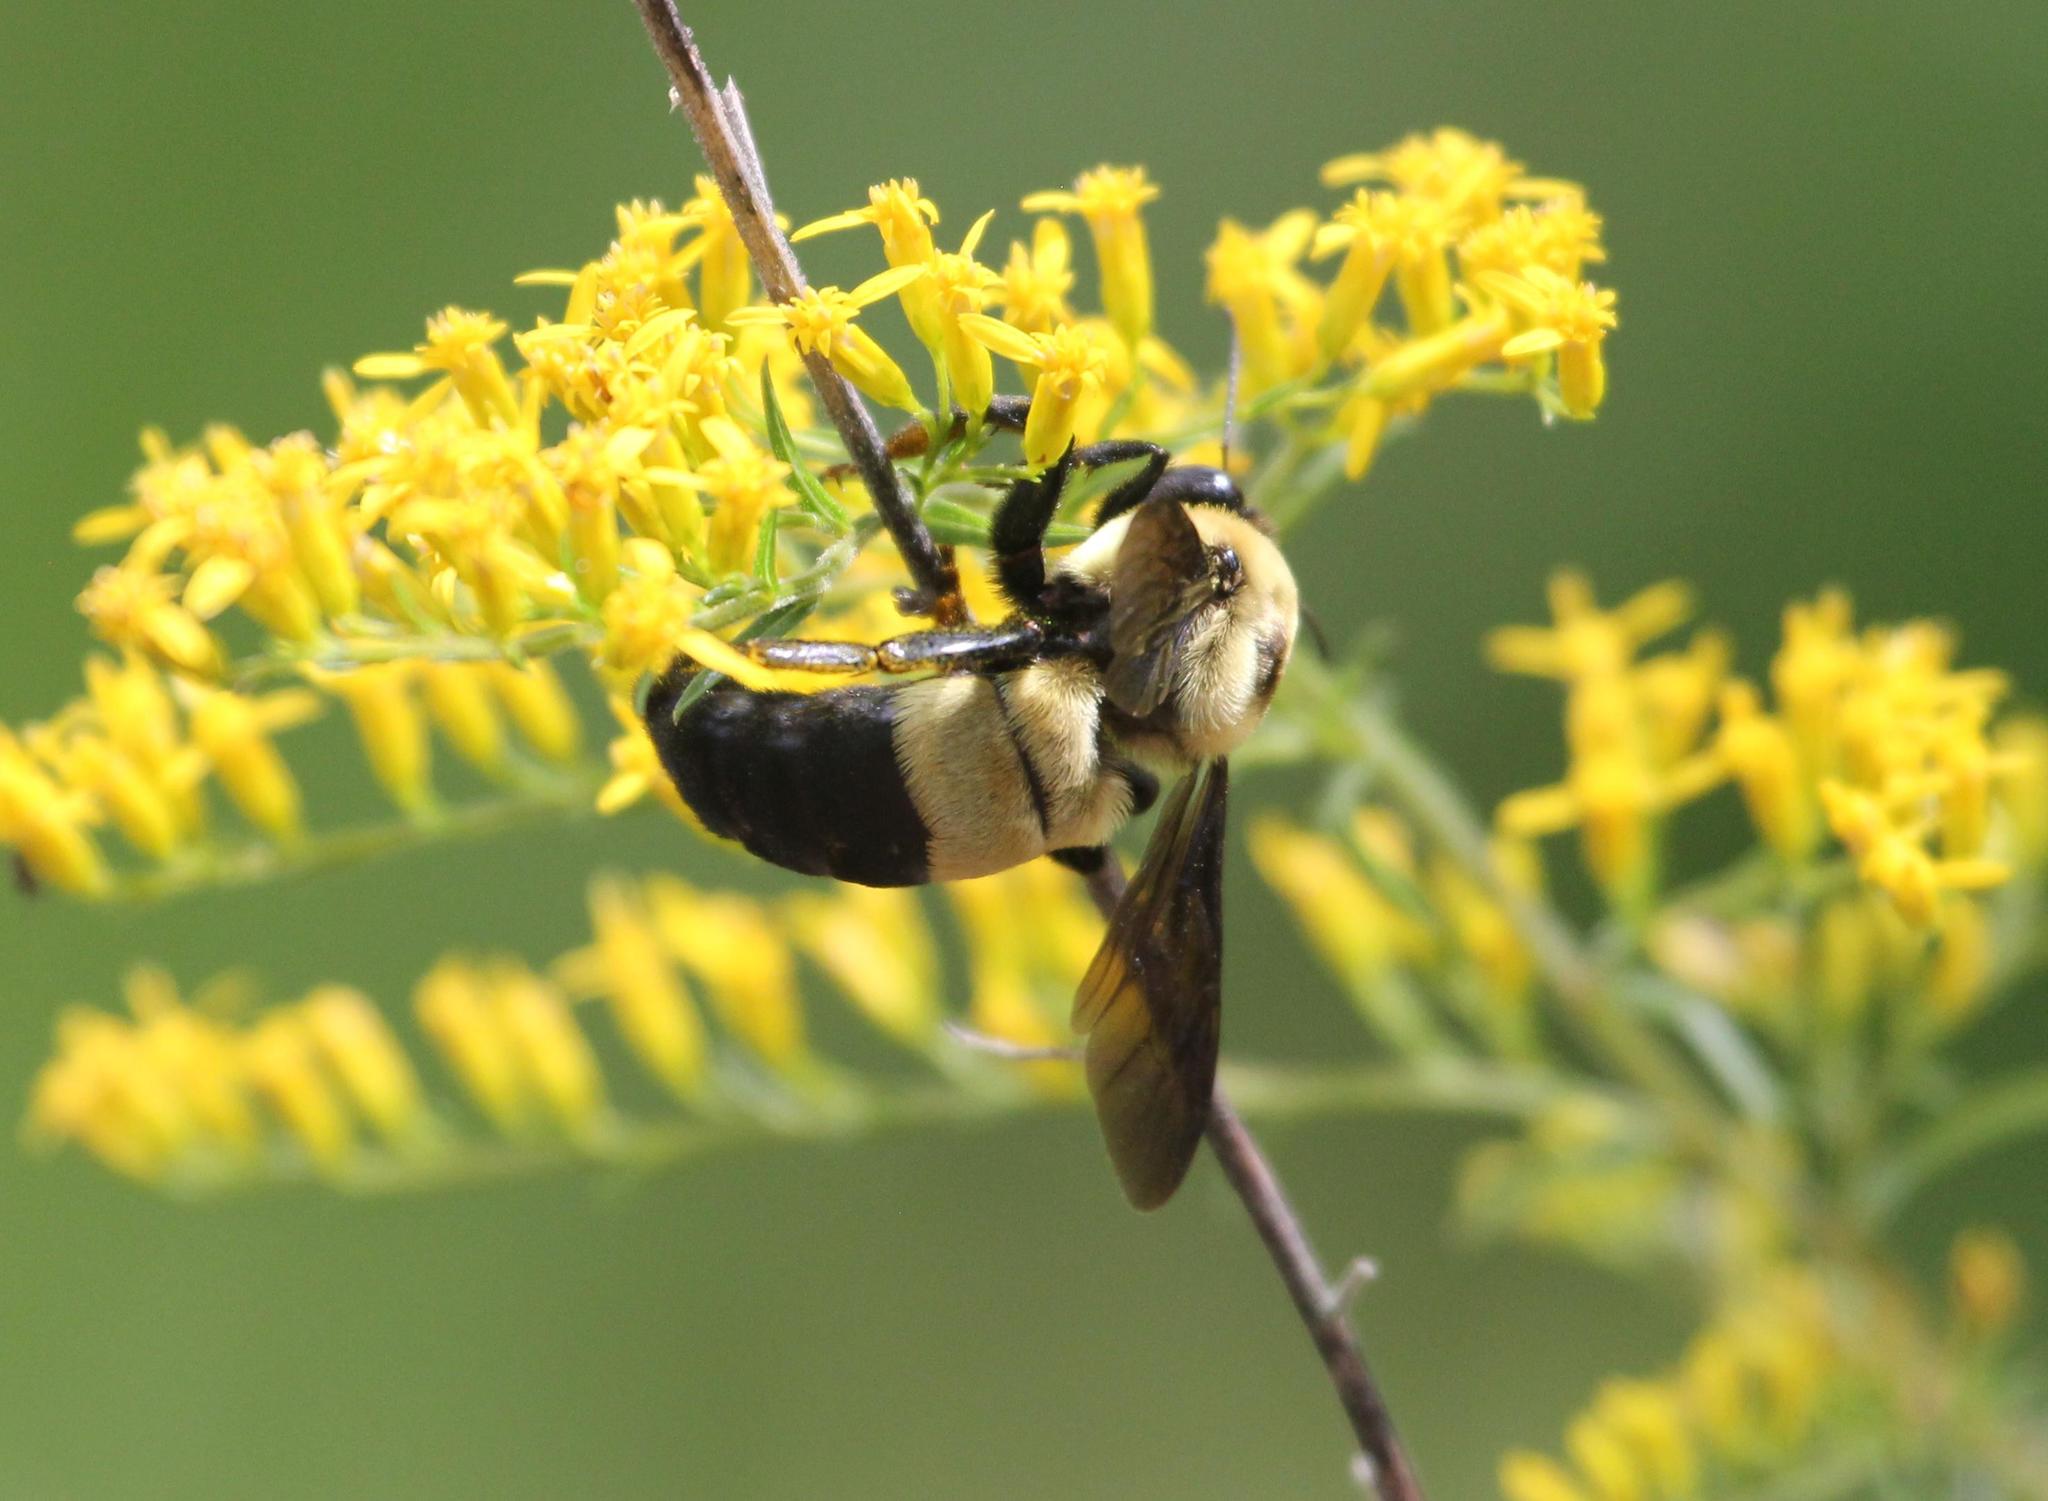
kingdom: Animalia
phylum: Arthropoda
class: Insecta
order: Hymenoptera
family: Apidae
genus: Bombus
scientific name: Bombus fraternus
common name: Southern plains bumble bee
